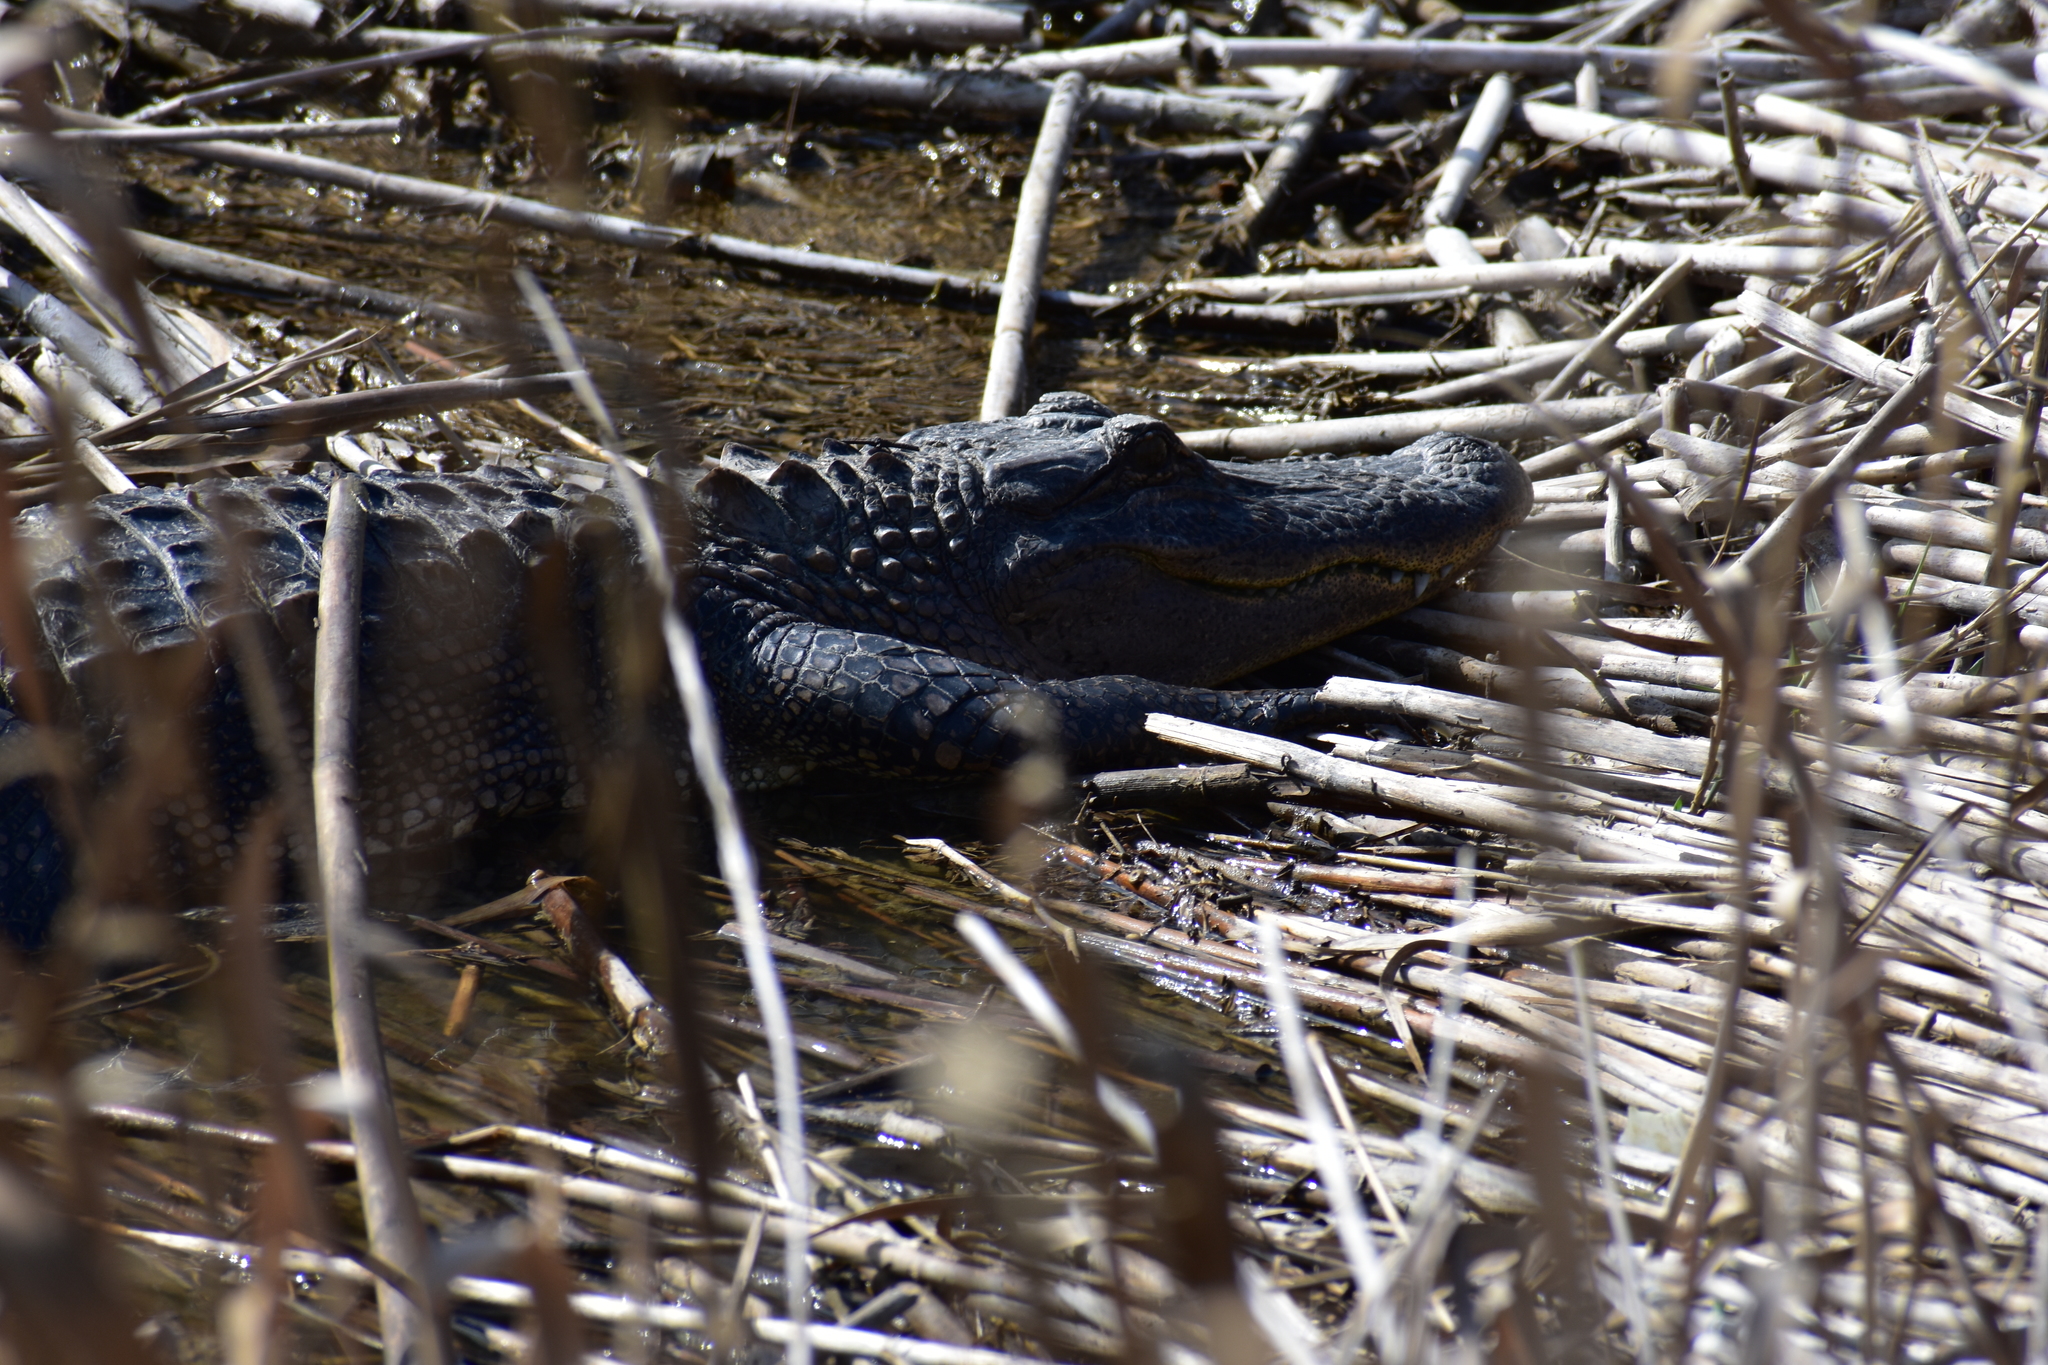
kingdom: Animalia
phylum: Chordata
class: Crocodylia
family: Alligatoridae
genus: Alligator
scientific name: Alligator mississippiensis
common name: American alligator
